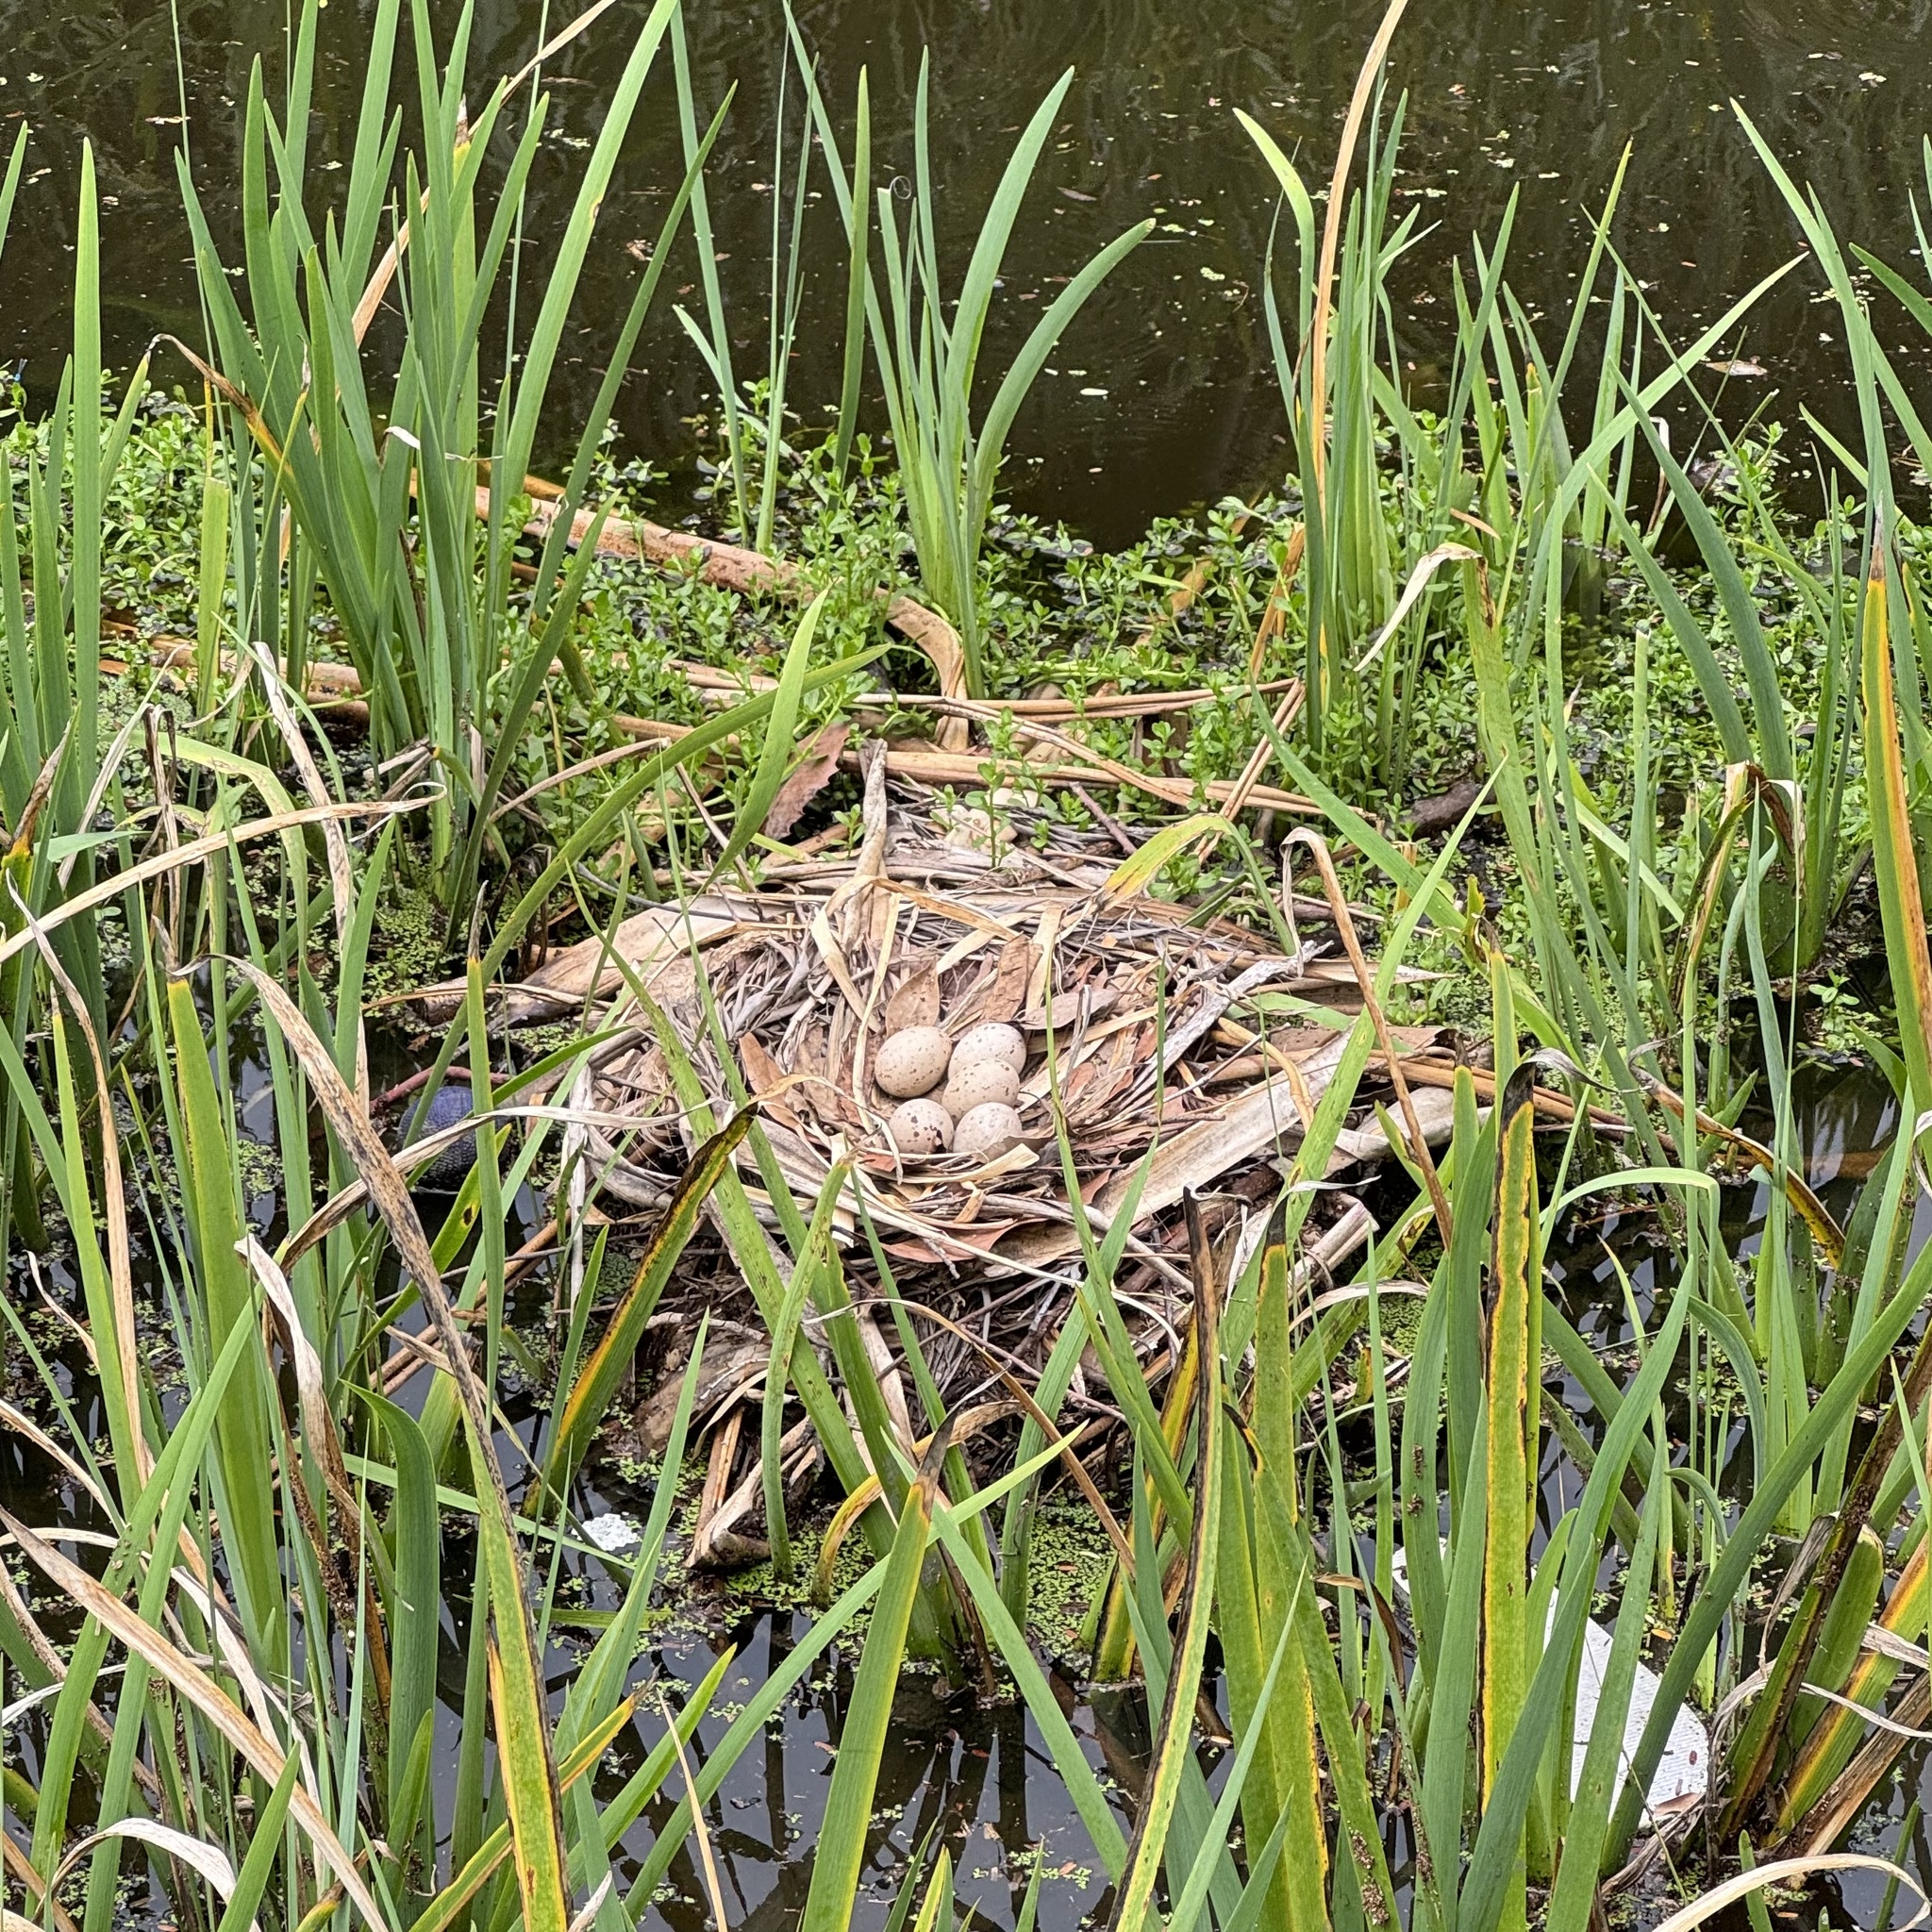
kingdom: Animalia
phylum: Chordata
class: Aves
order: Gruiformes
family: Rallidae
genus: Porphyrio
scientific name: Porphyrio melanotus
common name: Australasian swamphen
